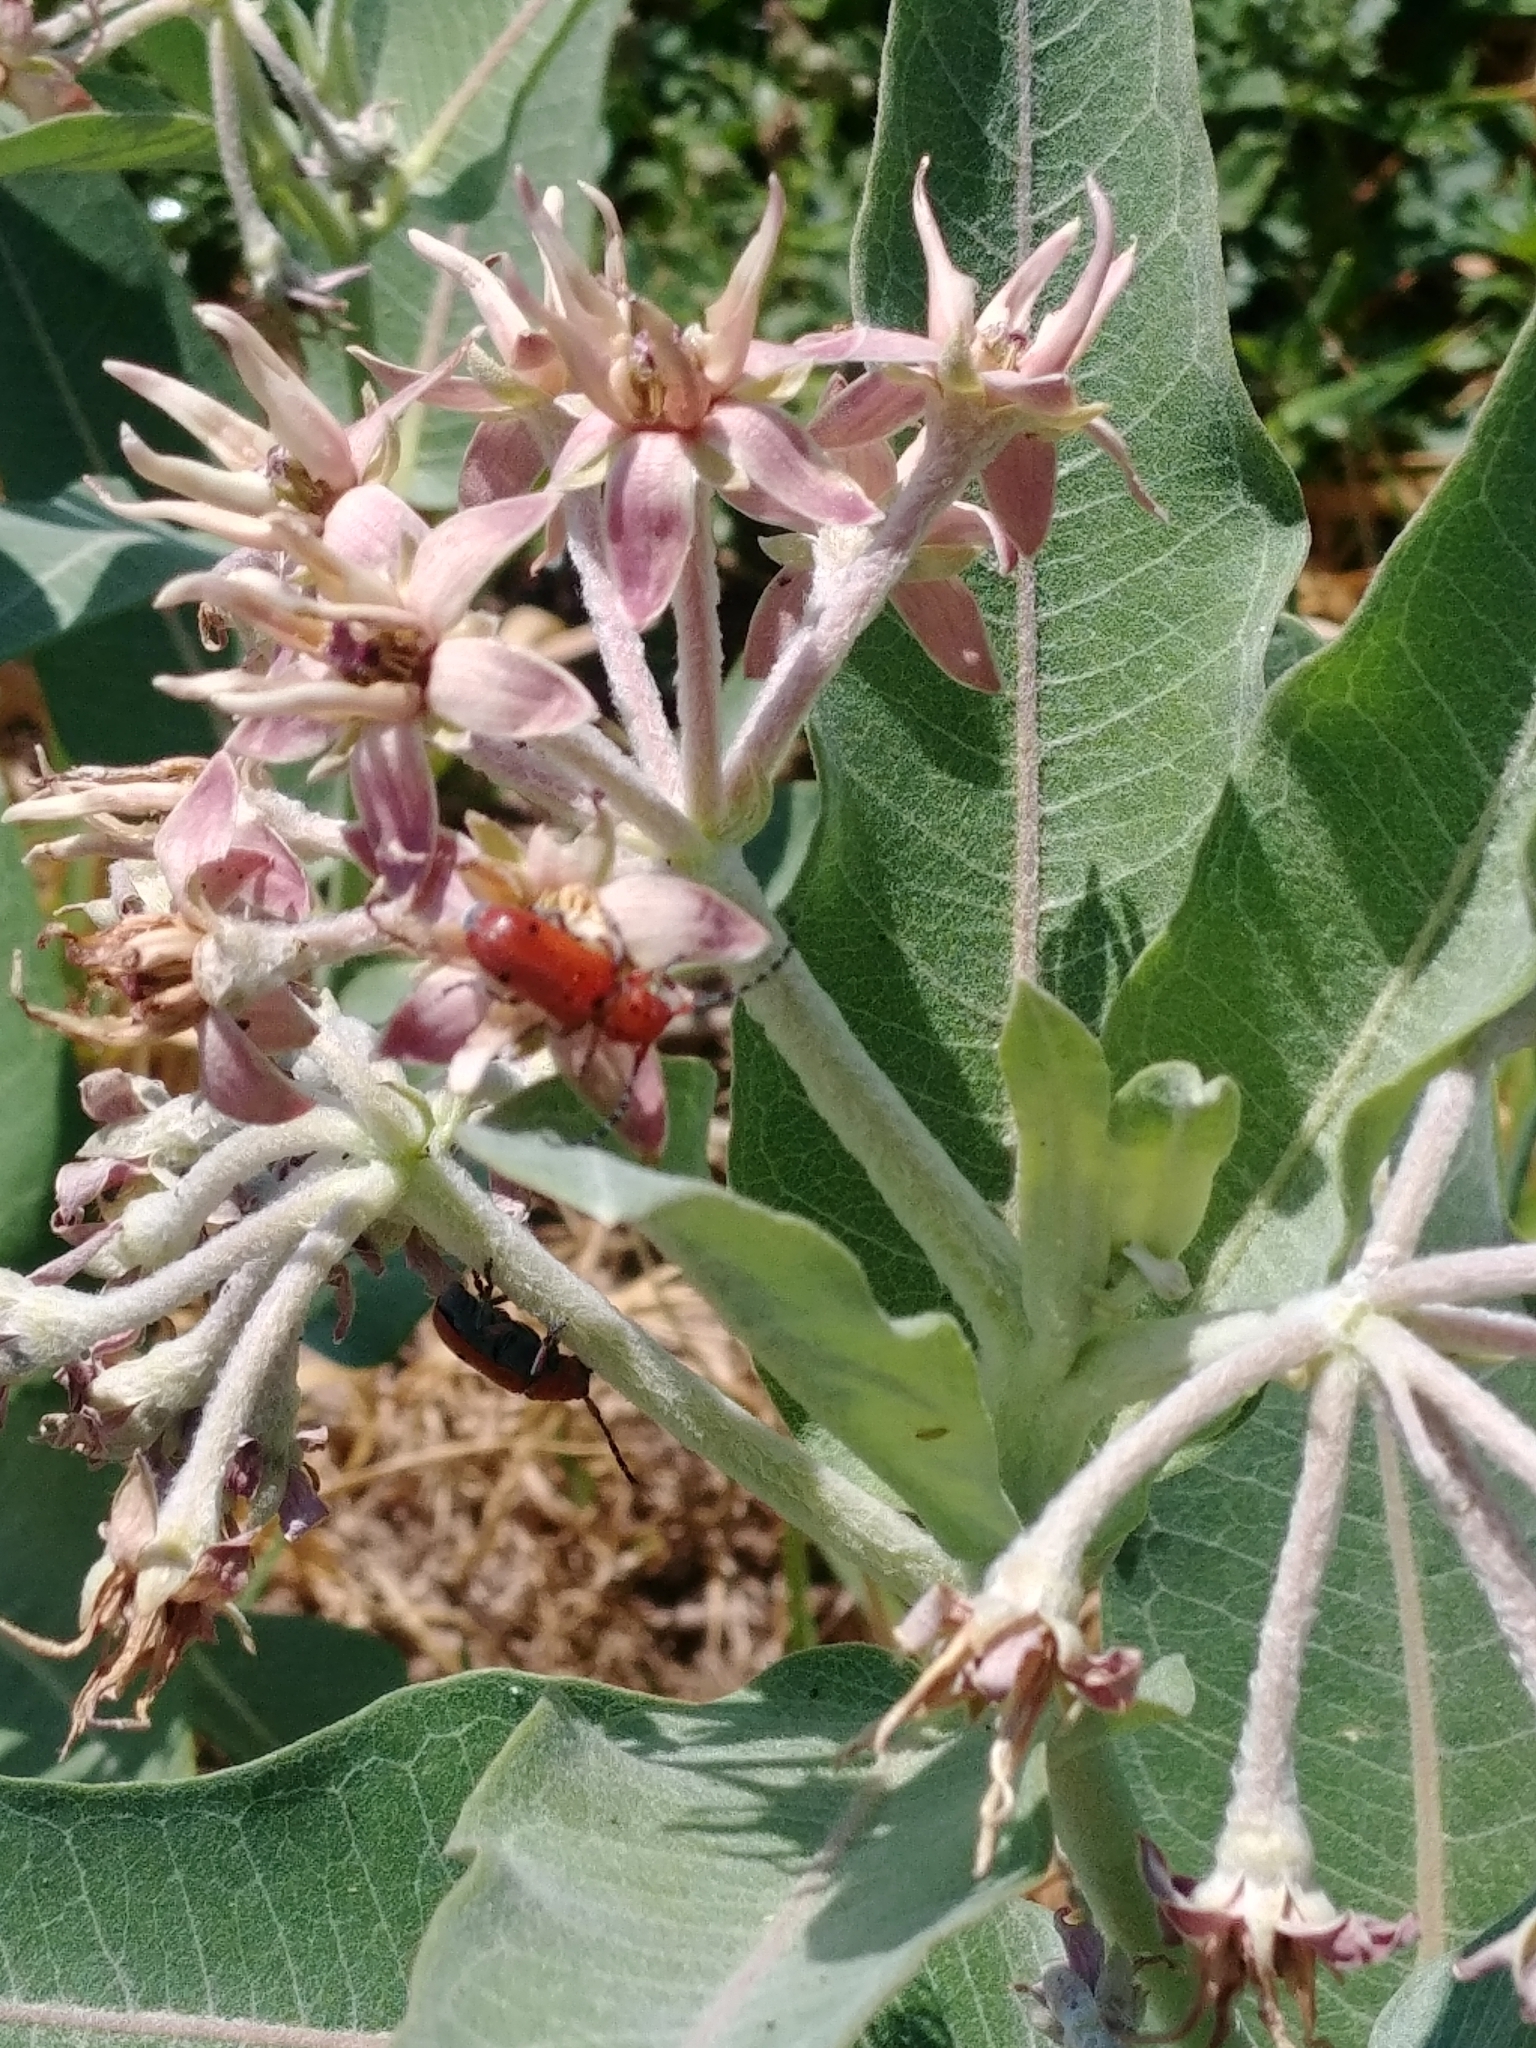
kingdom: Animalia
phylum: Arthropoda
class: Insecta
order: Coleoptera
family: Cerambycidae
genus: Tetraopes
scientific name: Tetraopes femoratus
